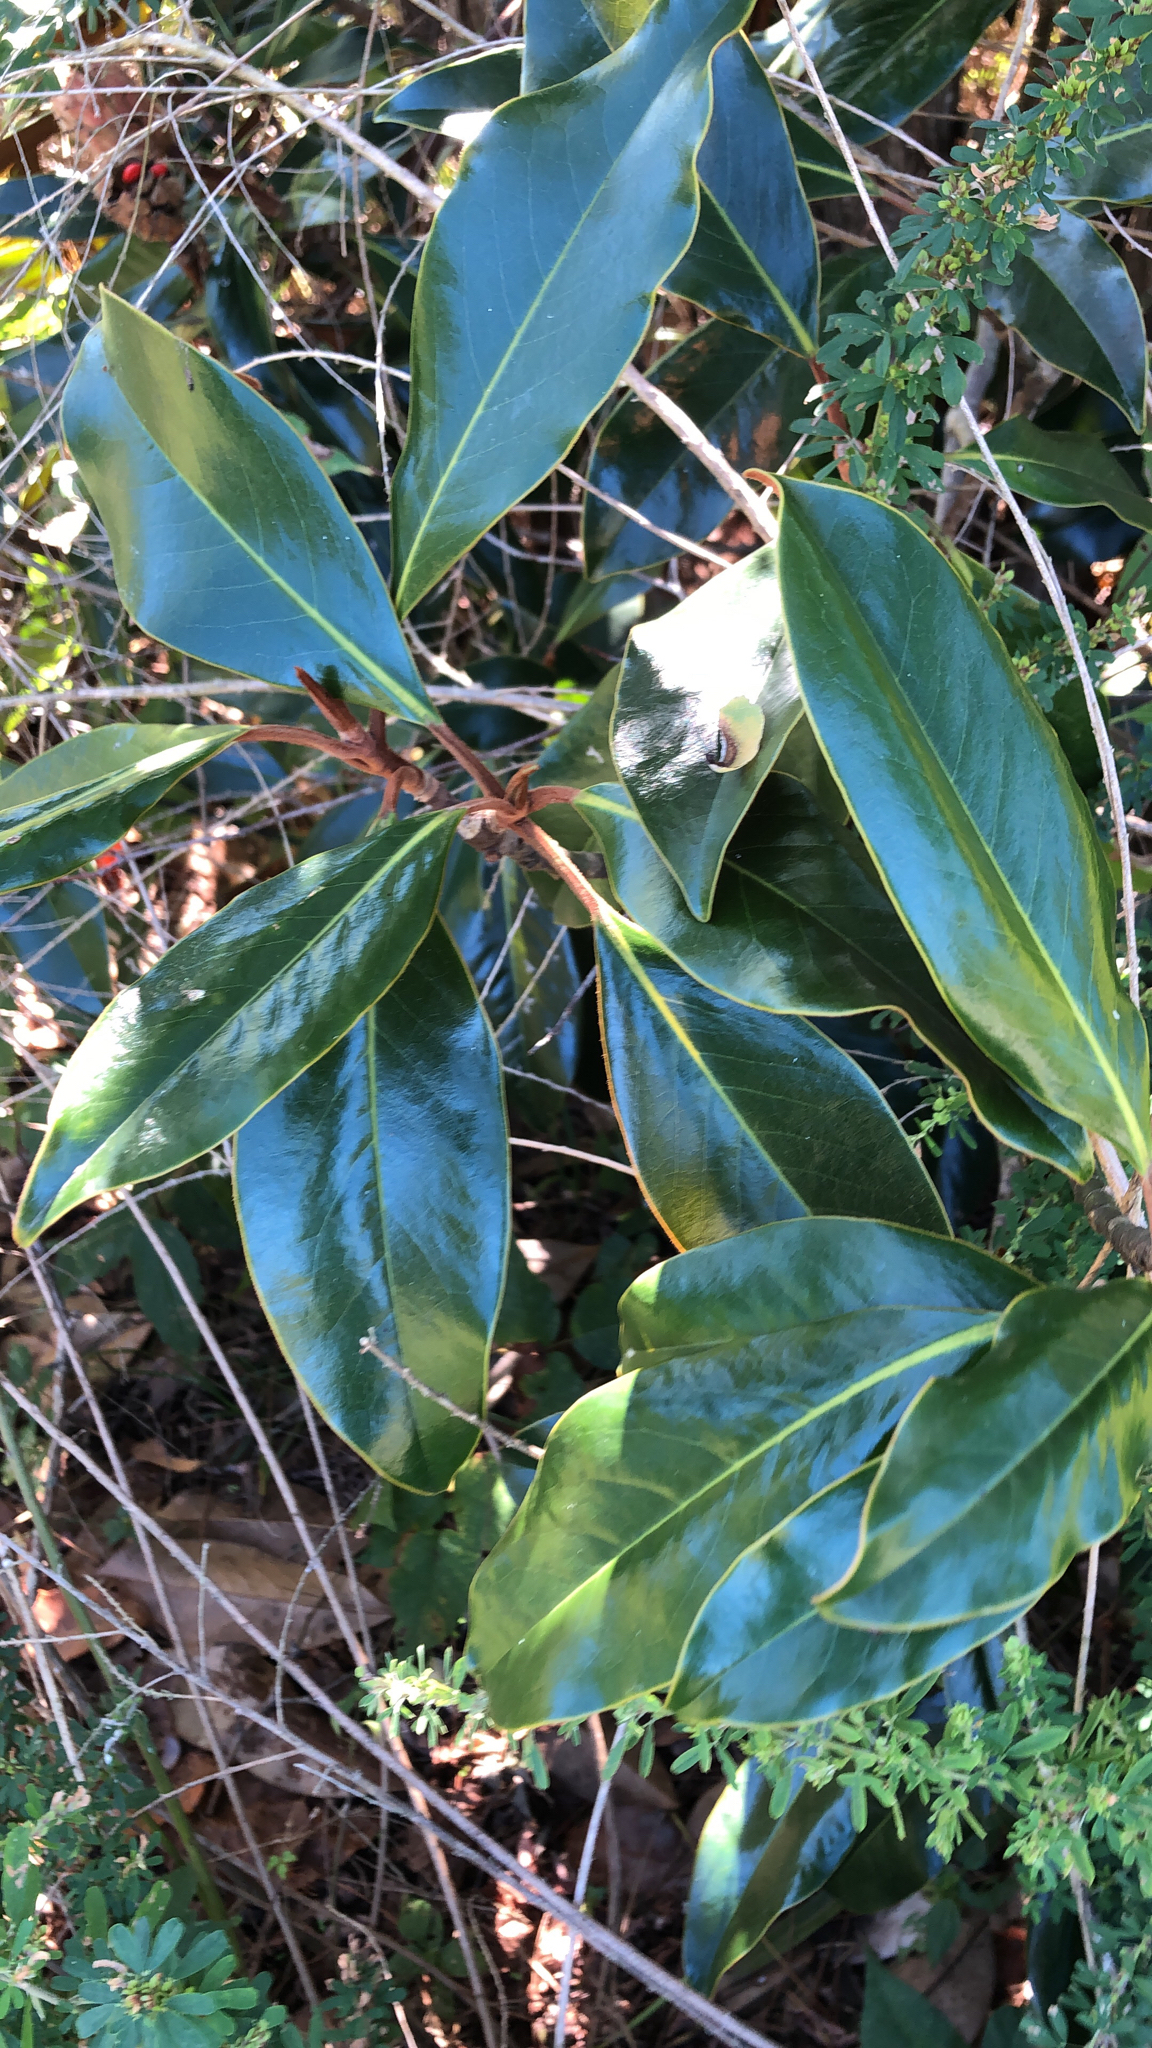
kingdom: Plantae
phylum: Tracheophyta
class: Magnoliopsida
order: Magnoliales
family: Magnoliaceae
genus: Magnolia
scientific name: Magnolia grandiflora
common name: Southern magnolia
